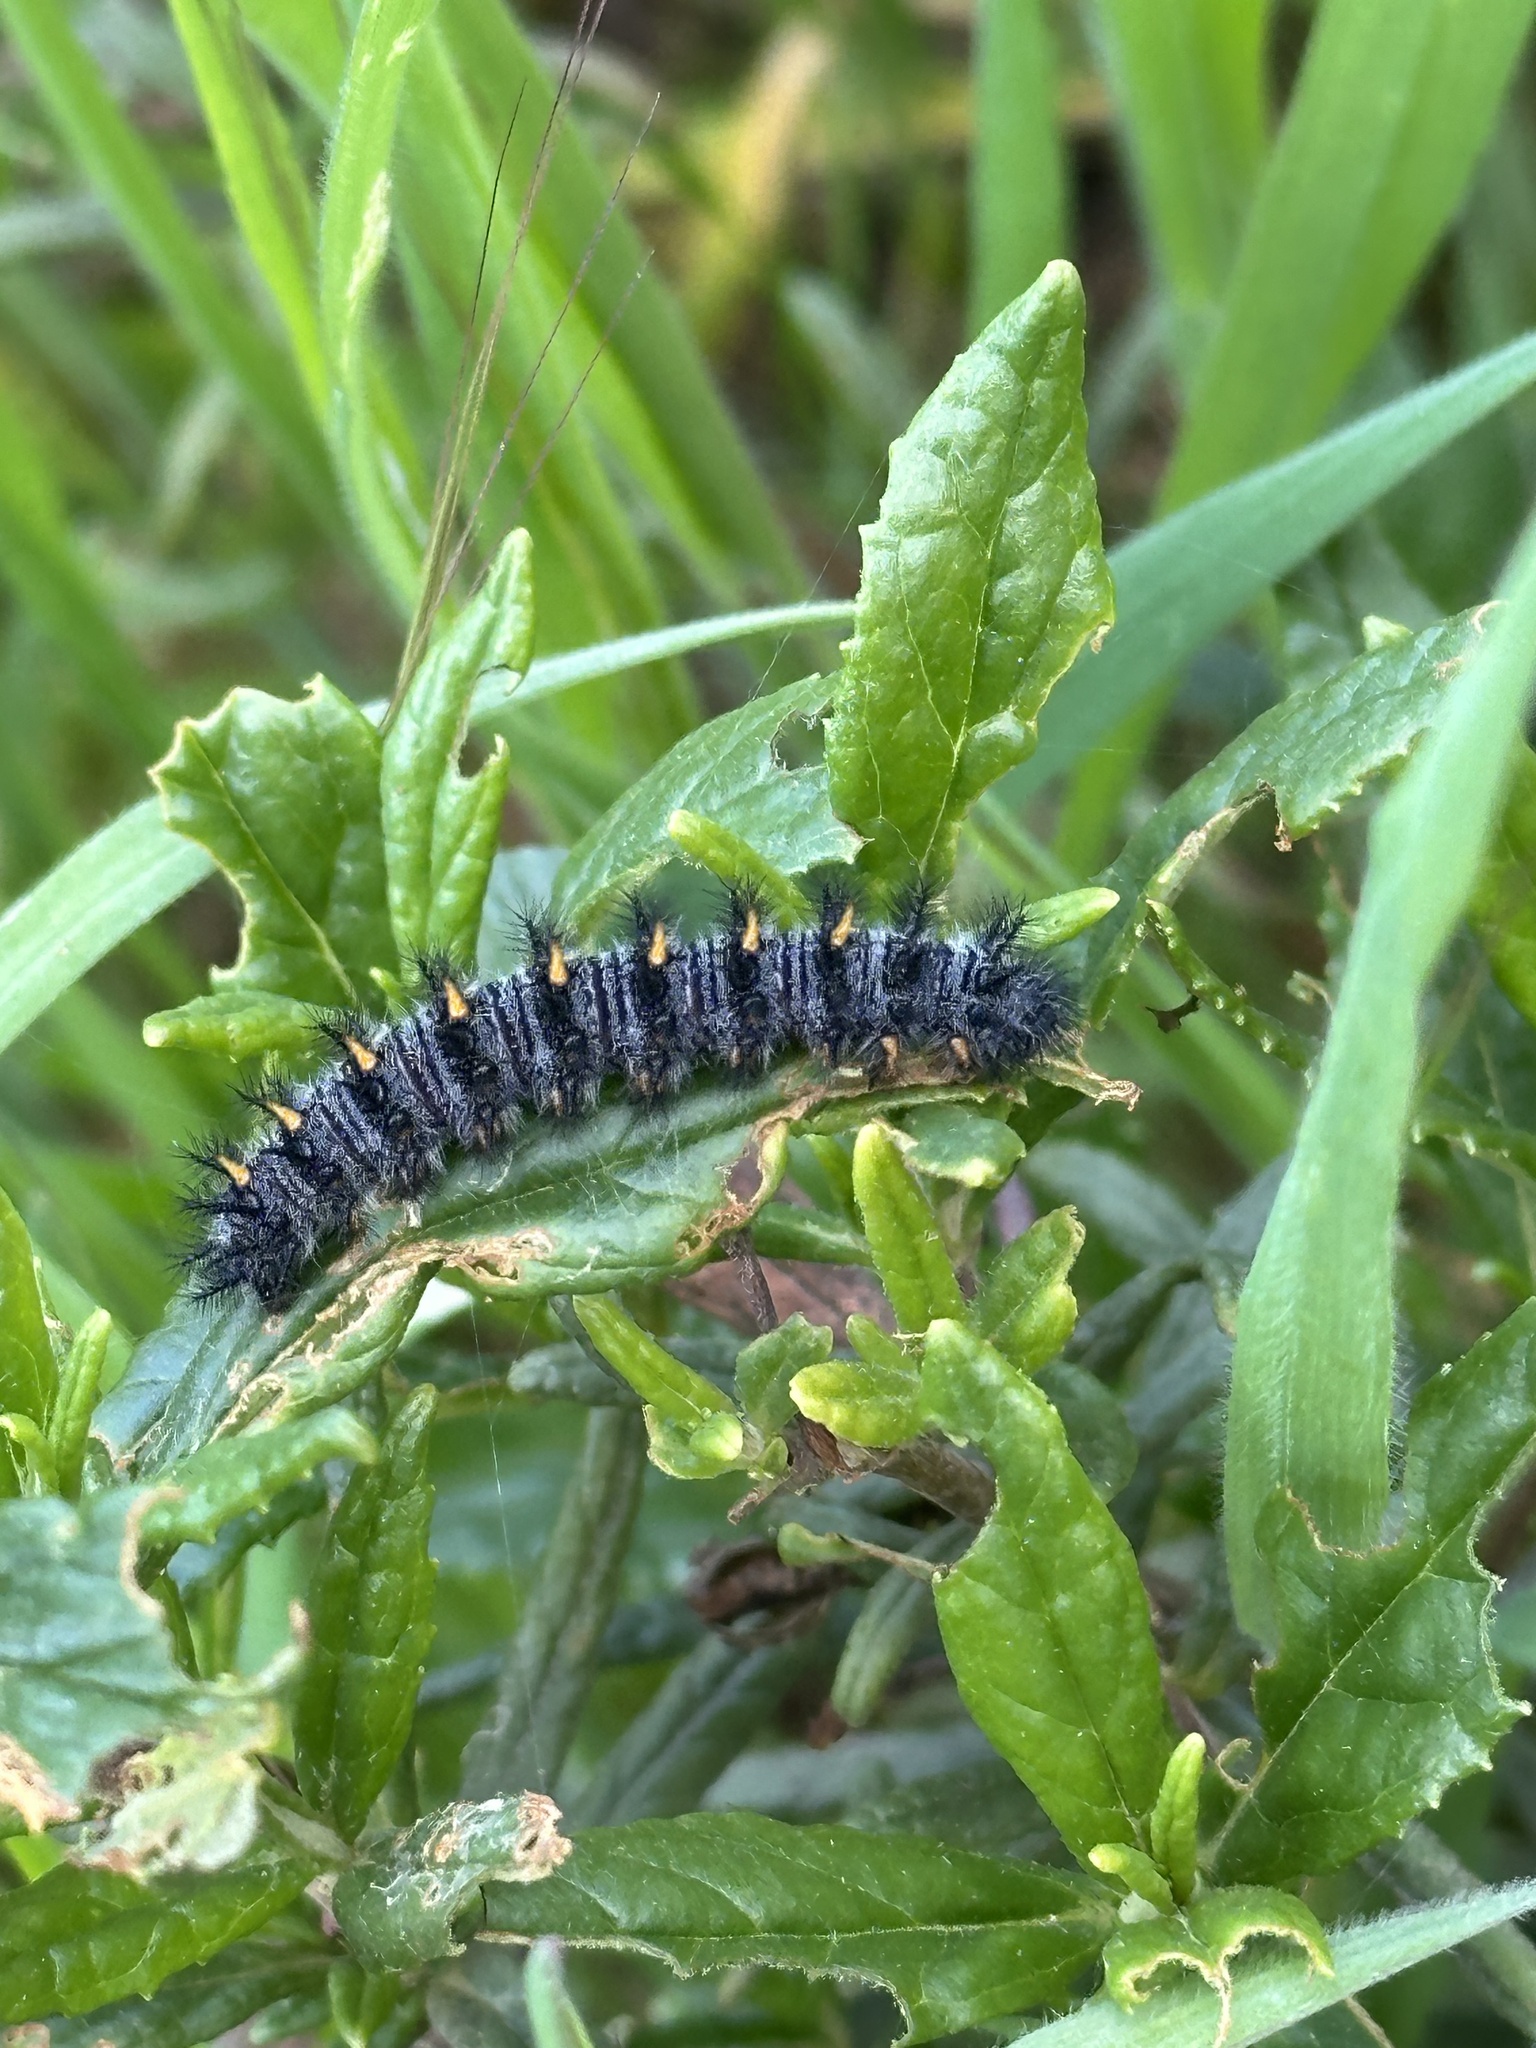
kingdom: Animalia
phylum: Arthropoda
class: Insecta
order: Lepidoptera
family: Nymphalidae
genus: Occidryas
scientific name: Occidryas chalcedona
